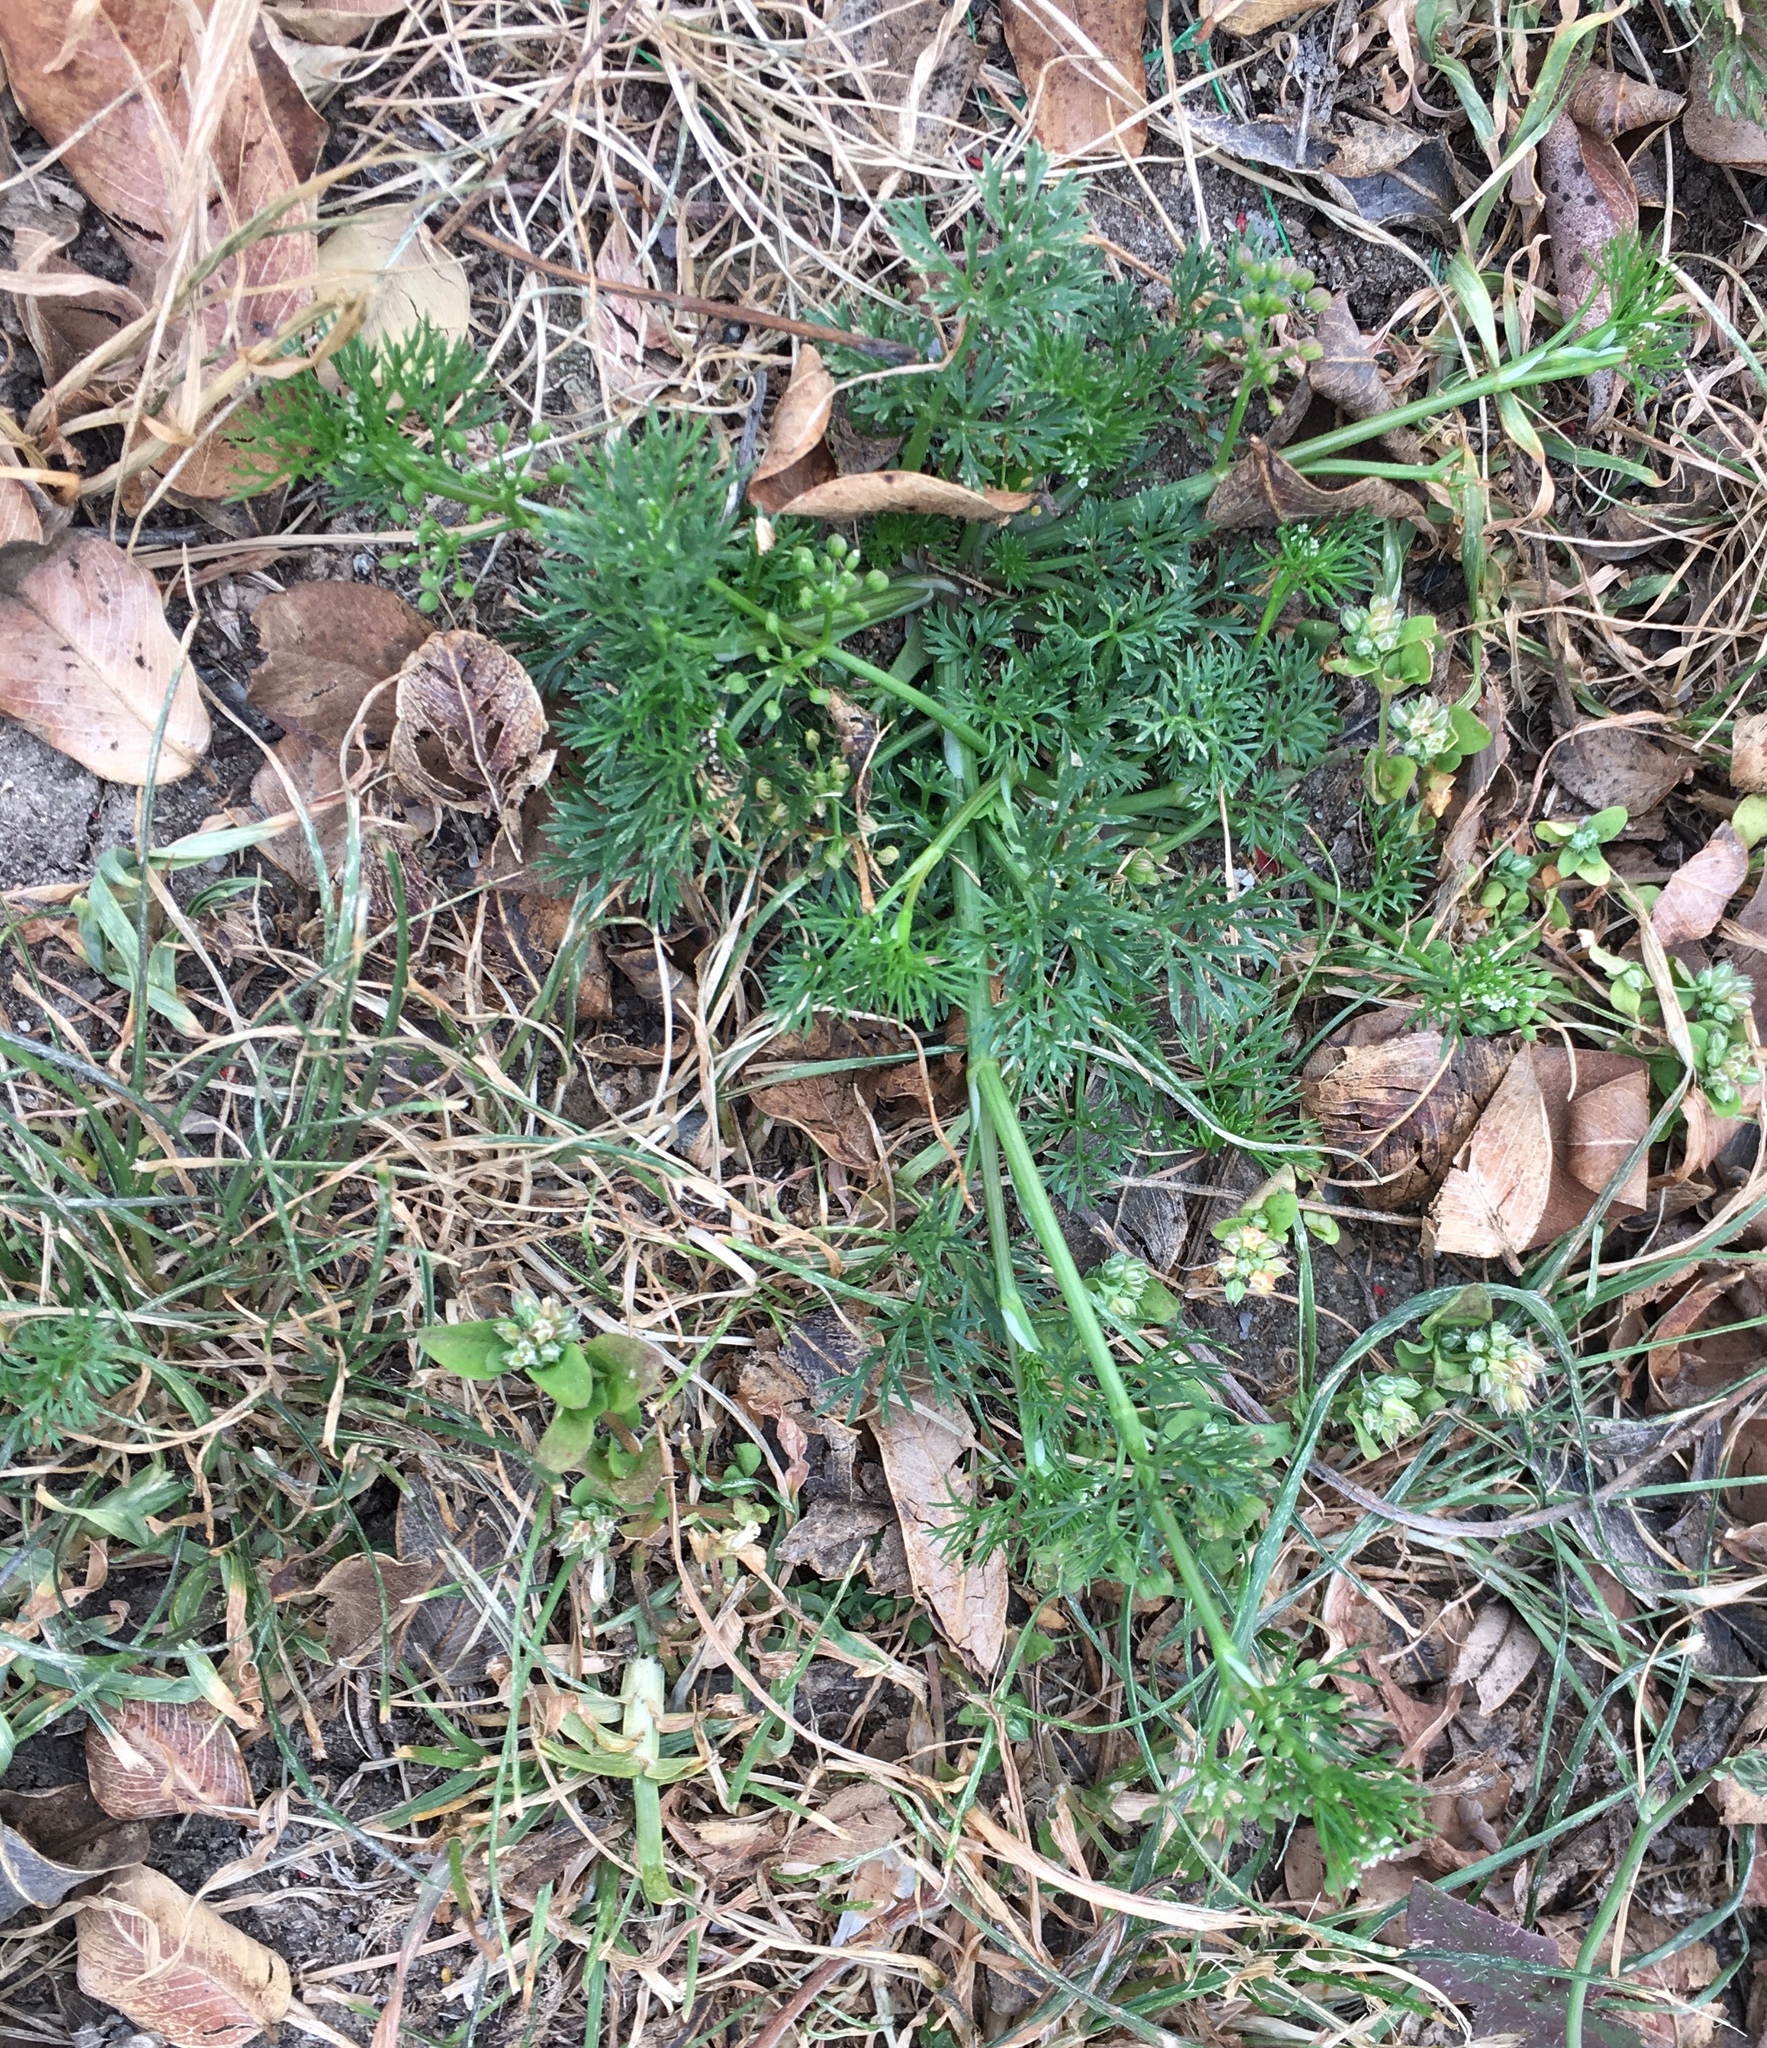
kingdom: Plantae
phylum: Tracheophyta
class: Magnoliopsida
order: Apiales
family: Apiaceae
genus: Cyclospermum
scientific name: Cyclospermum leptophyllum
